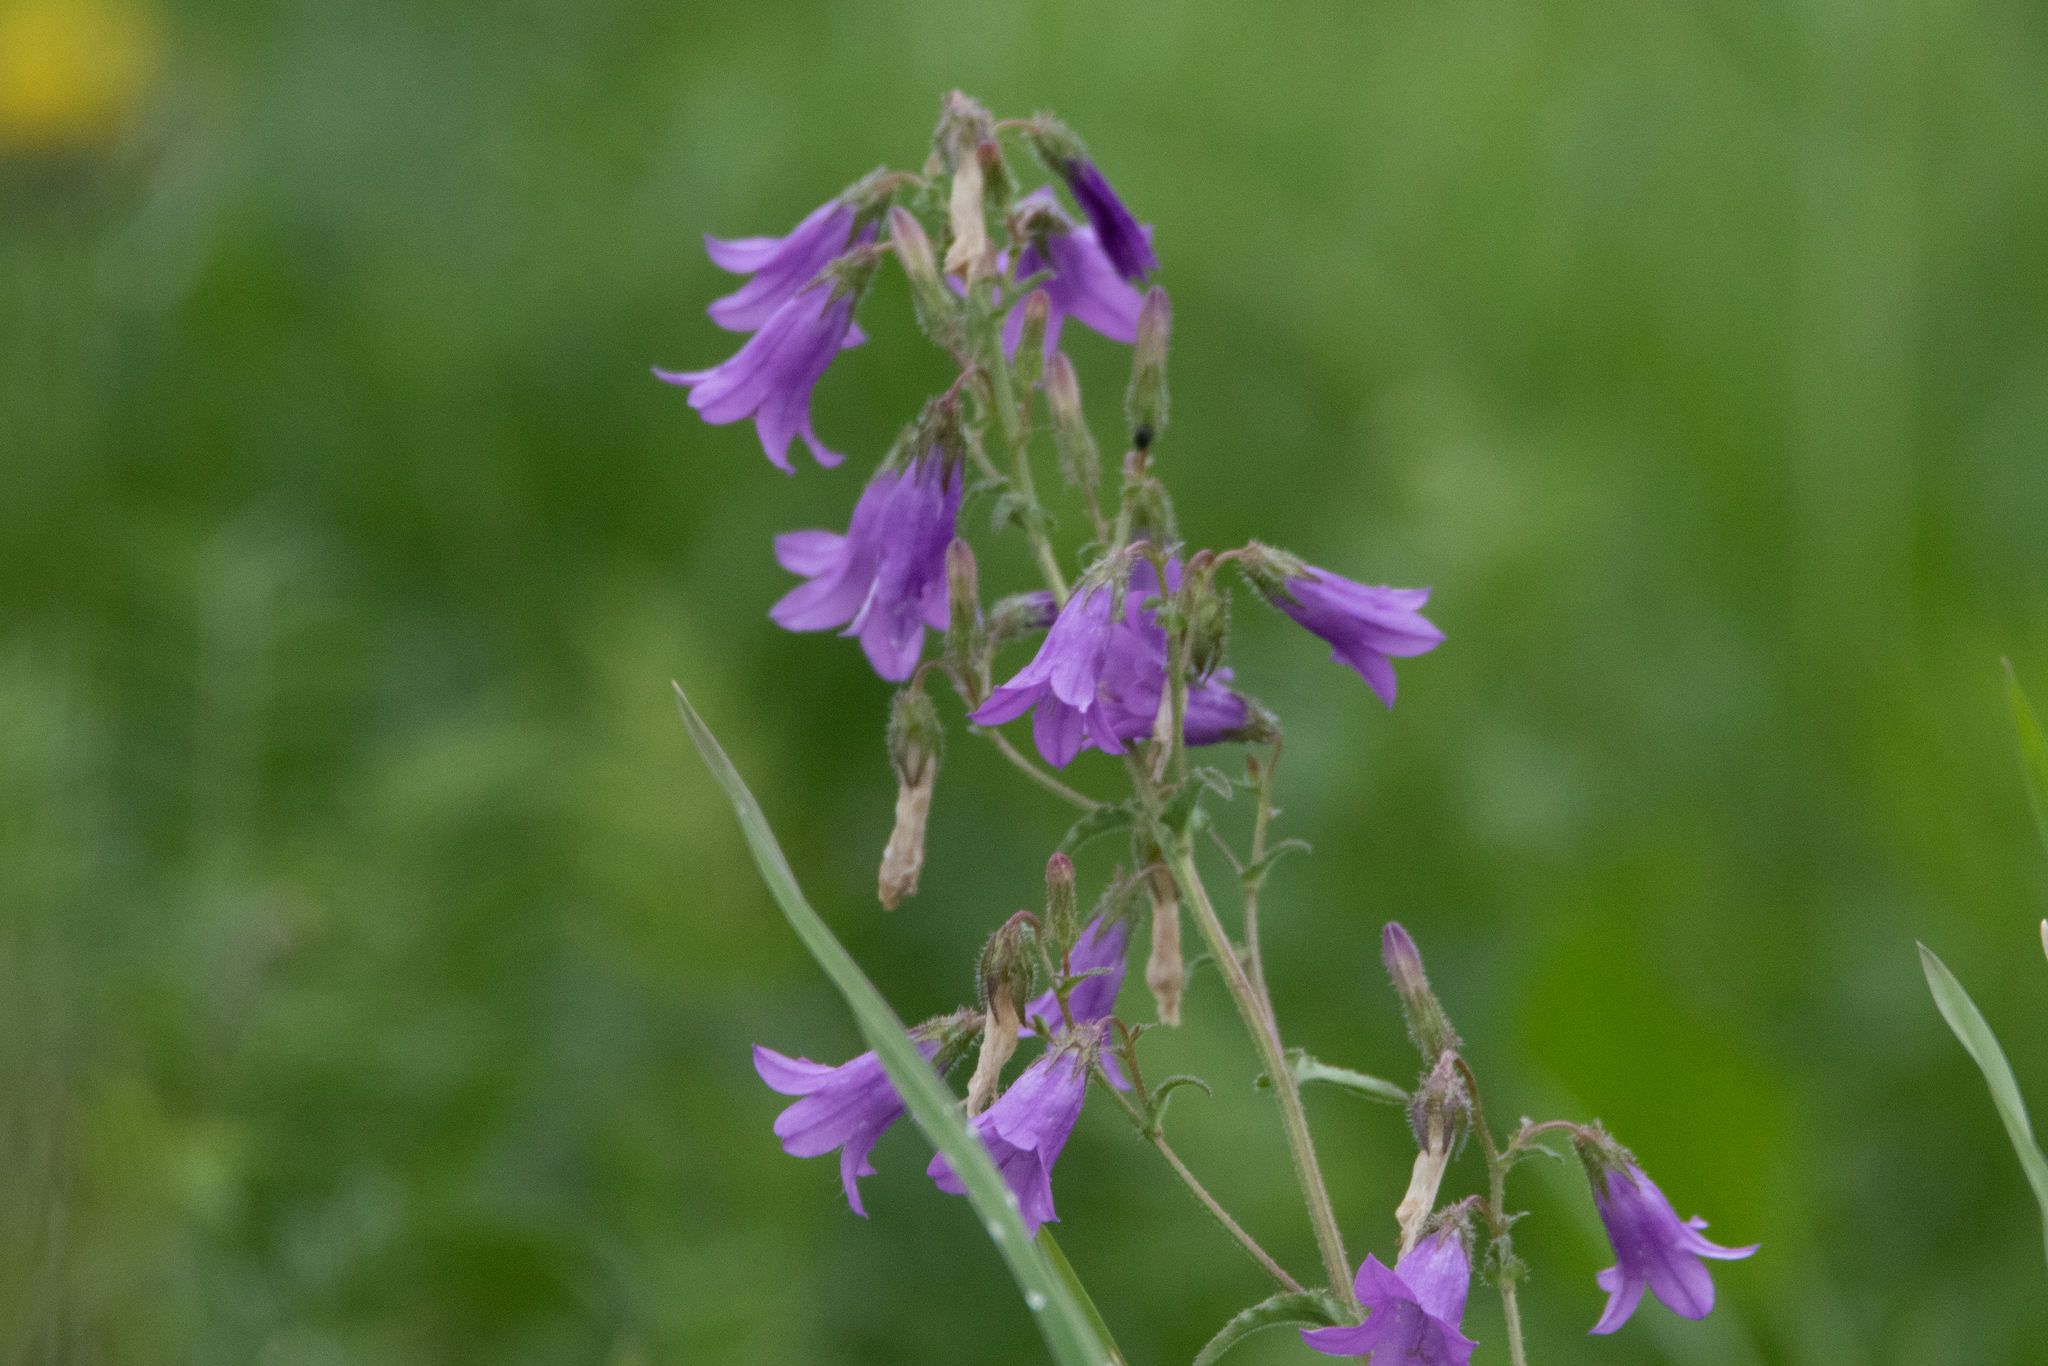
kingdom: Plantae
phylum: Tracheophyta
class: Magnoliopsida
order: Asterales
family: Campanulaceae
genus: Campanula
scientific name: Campanula sibirica
